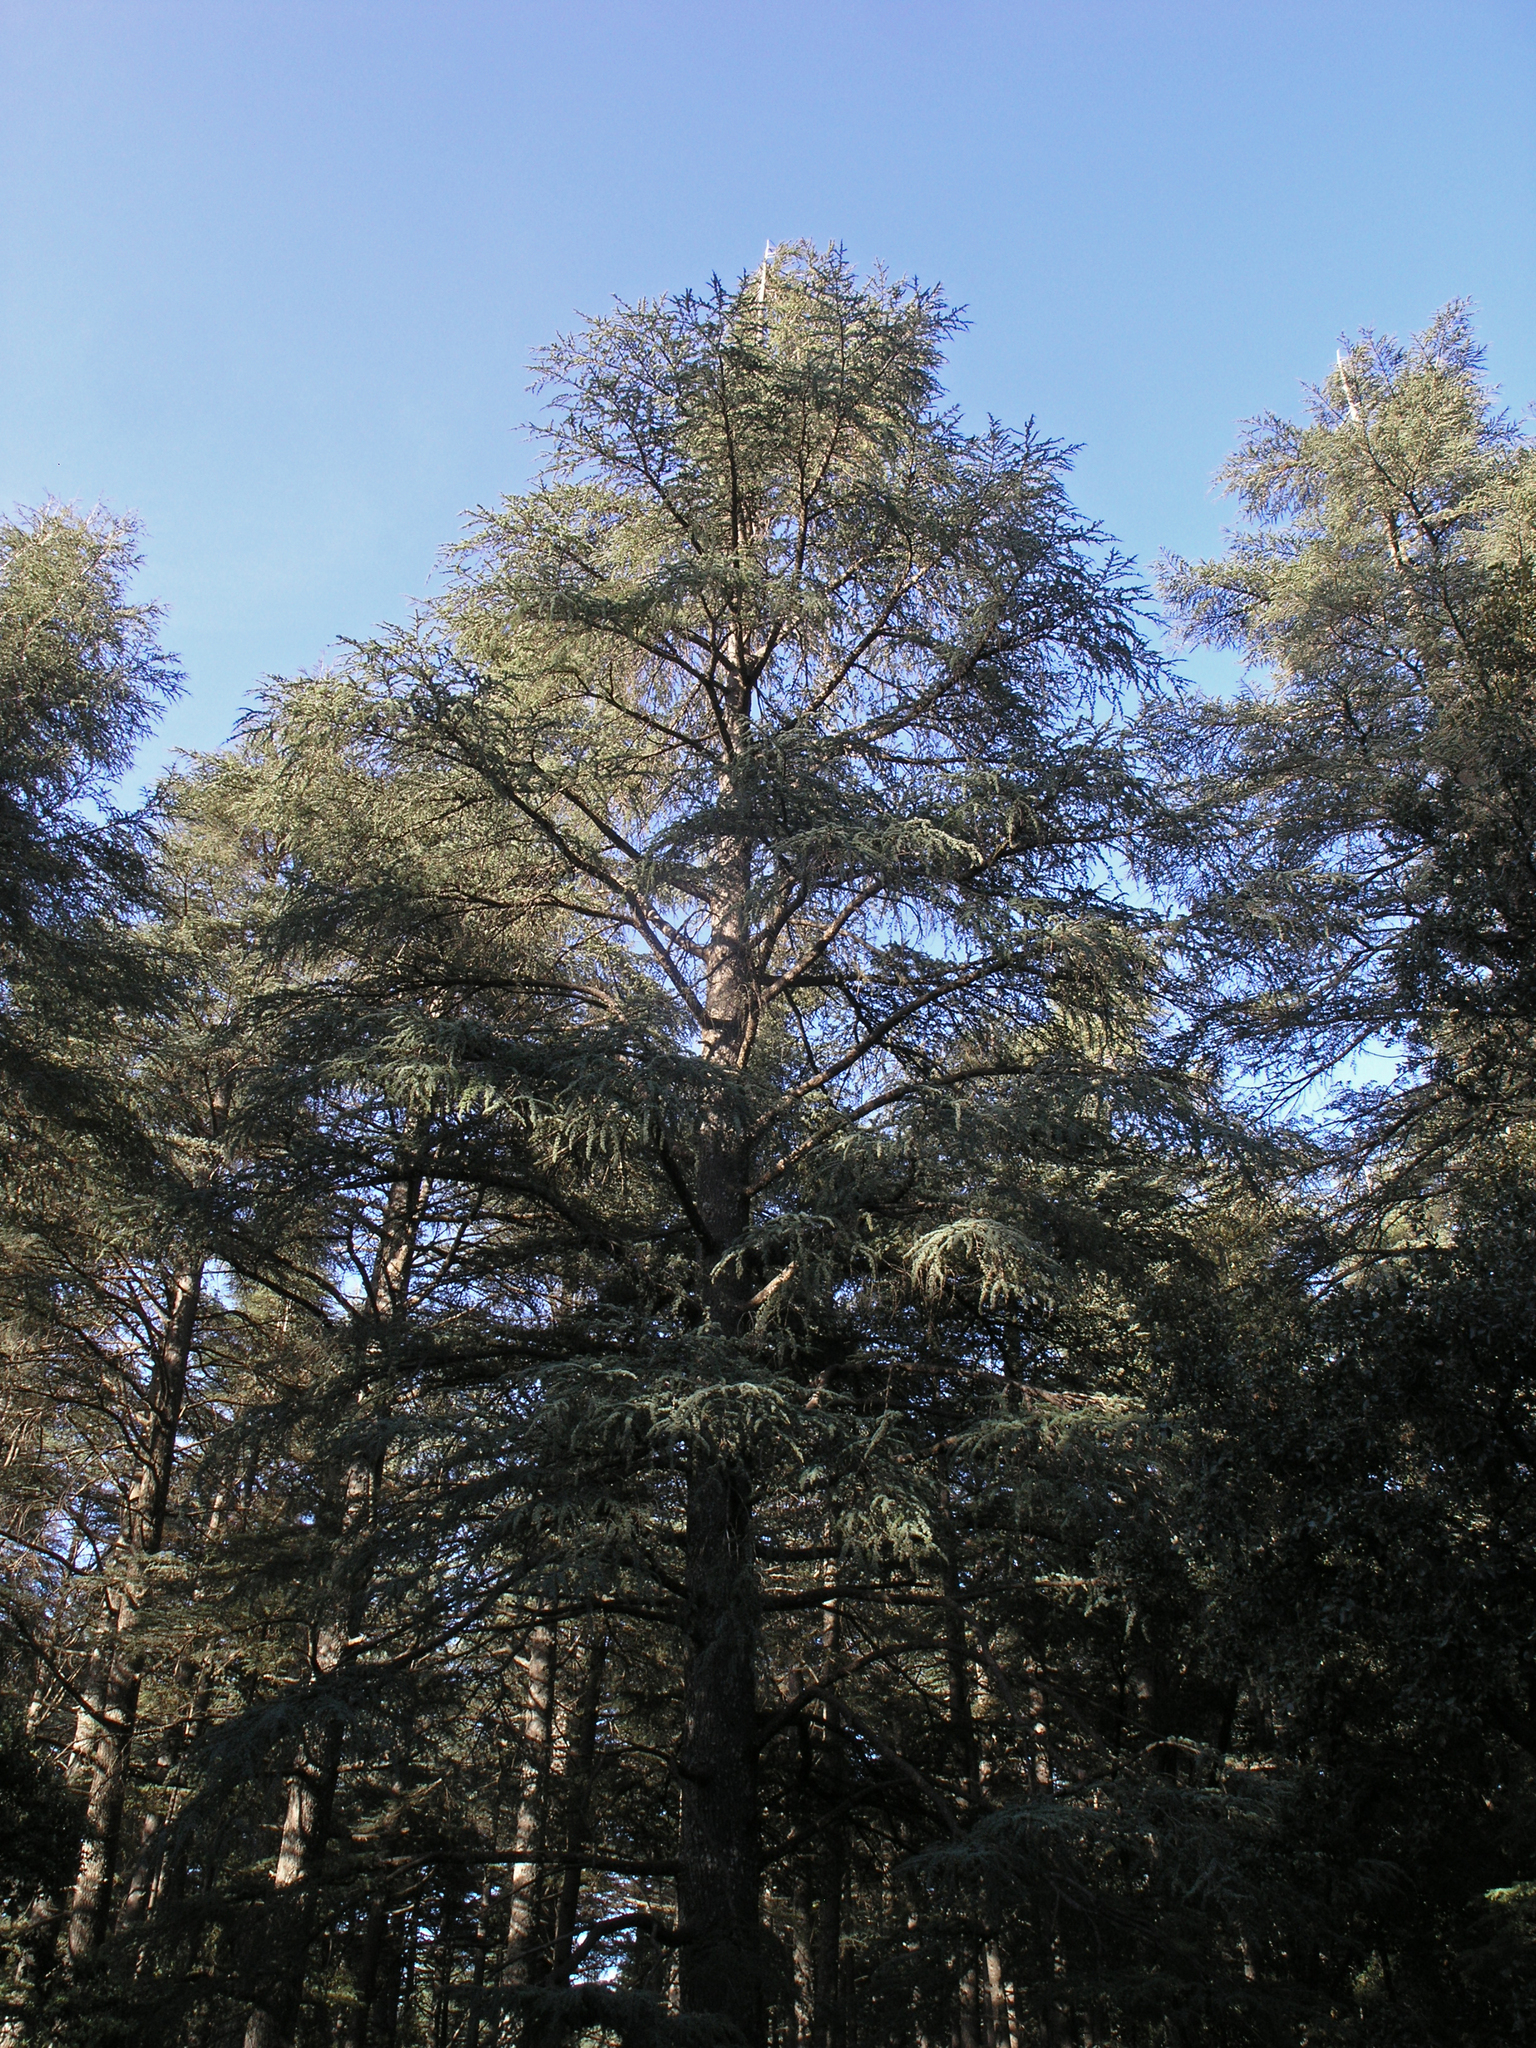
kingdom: Plantae
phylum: Tracheophyta
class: Pinopsida
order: Pinales
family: Pinaceae
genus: Cedrus
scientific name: Cedrus atlantica
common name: Atlas cedar
